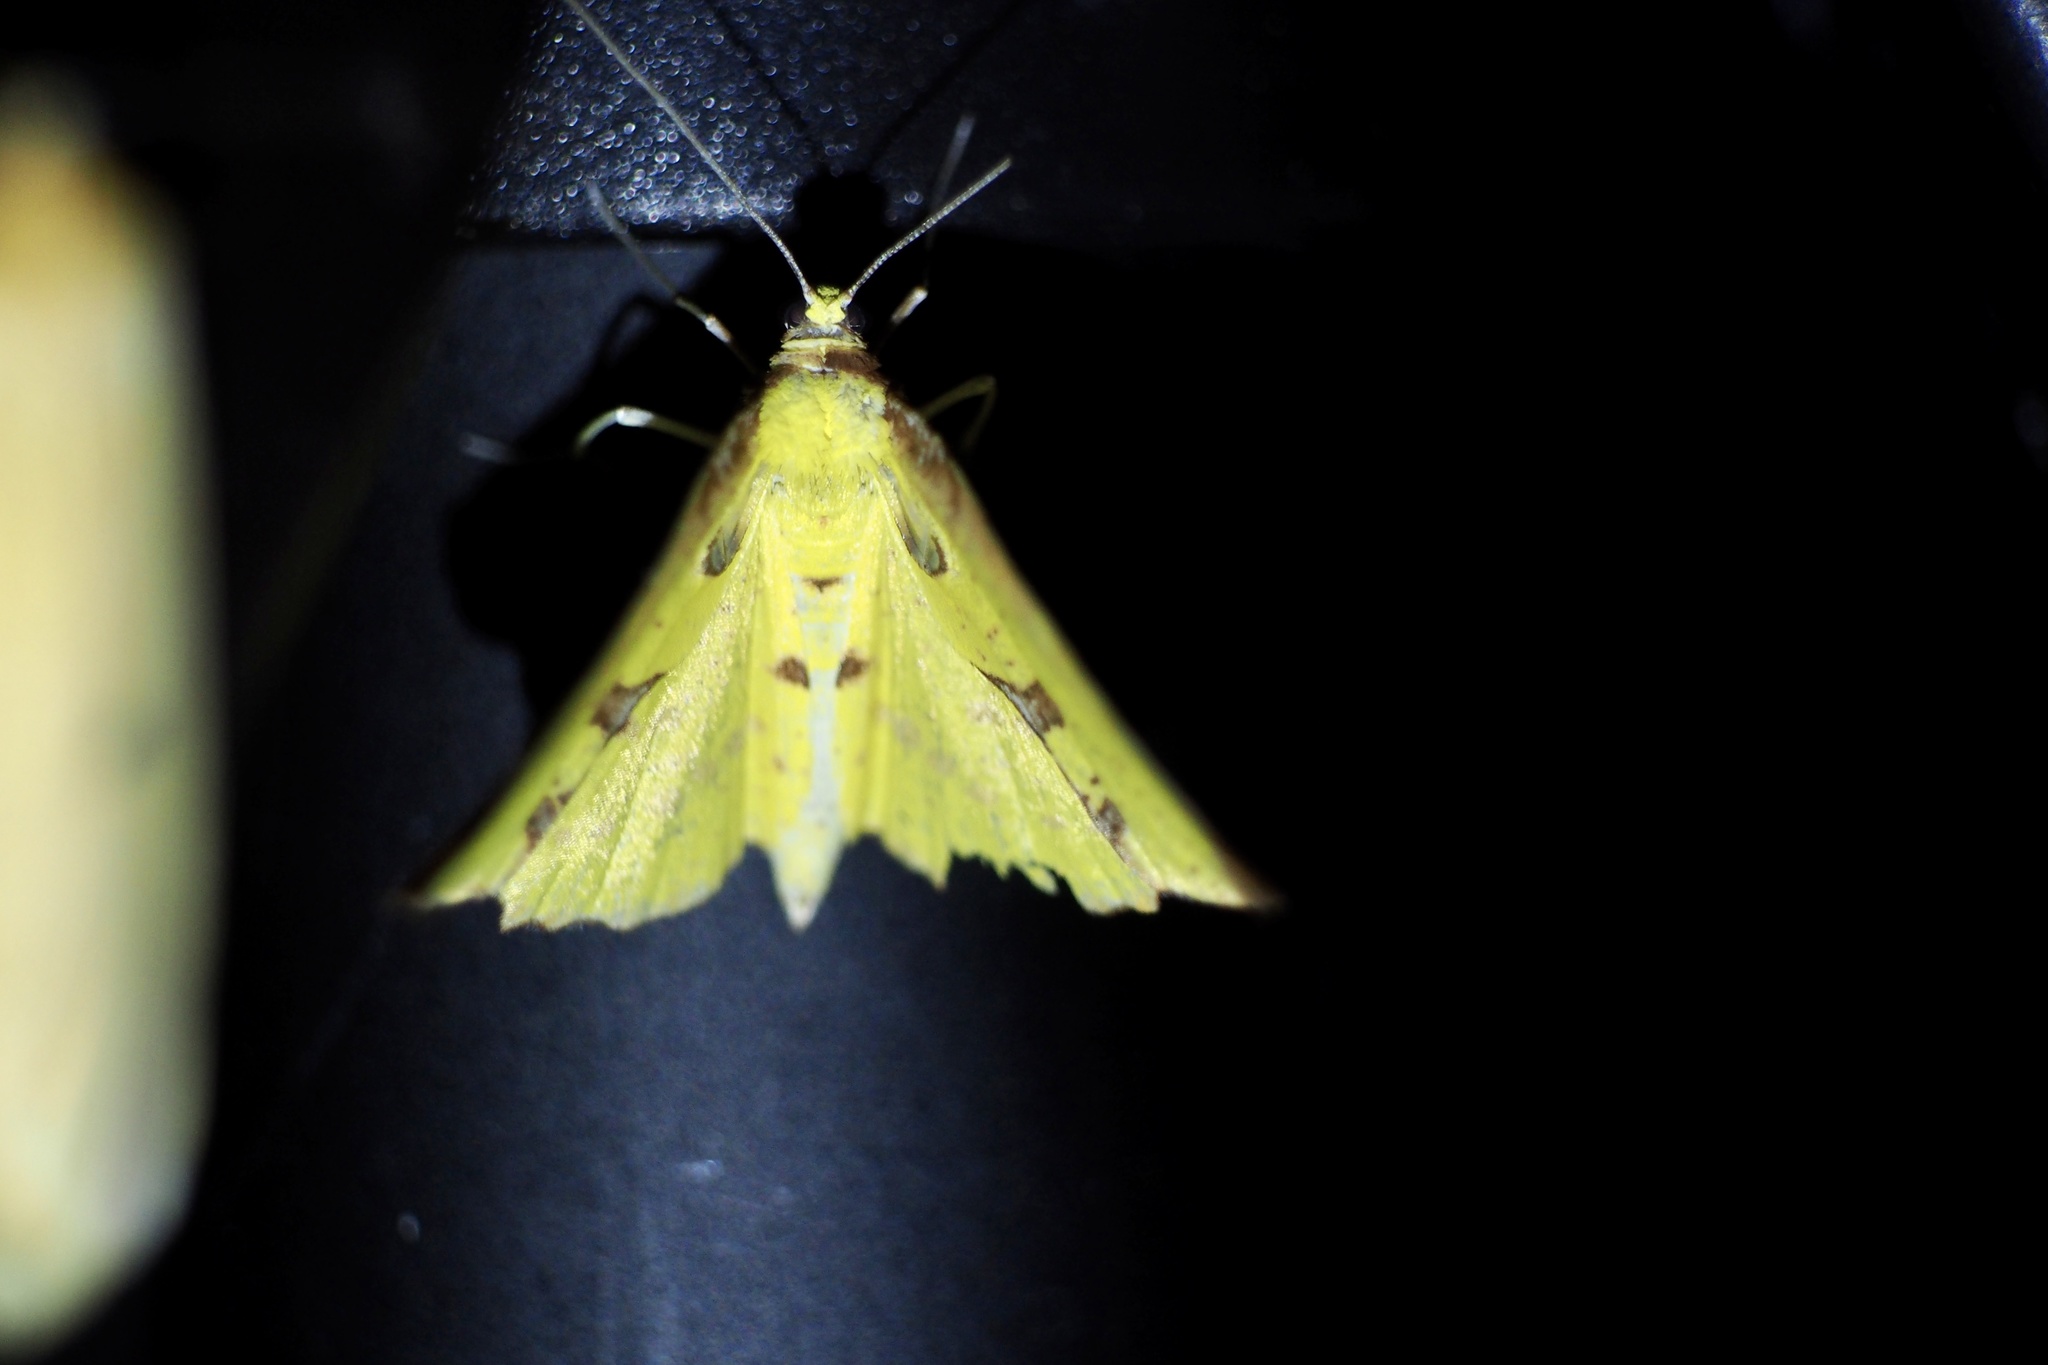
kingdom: Animalia
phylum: Arthropoda
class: Insecta
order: Lepidoptera
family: Geometridae
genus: Corymica
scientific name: Corymica pryeri
